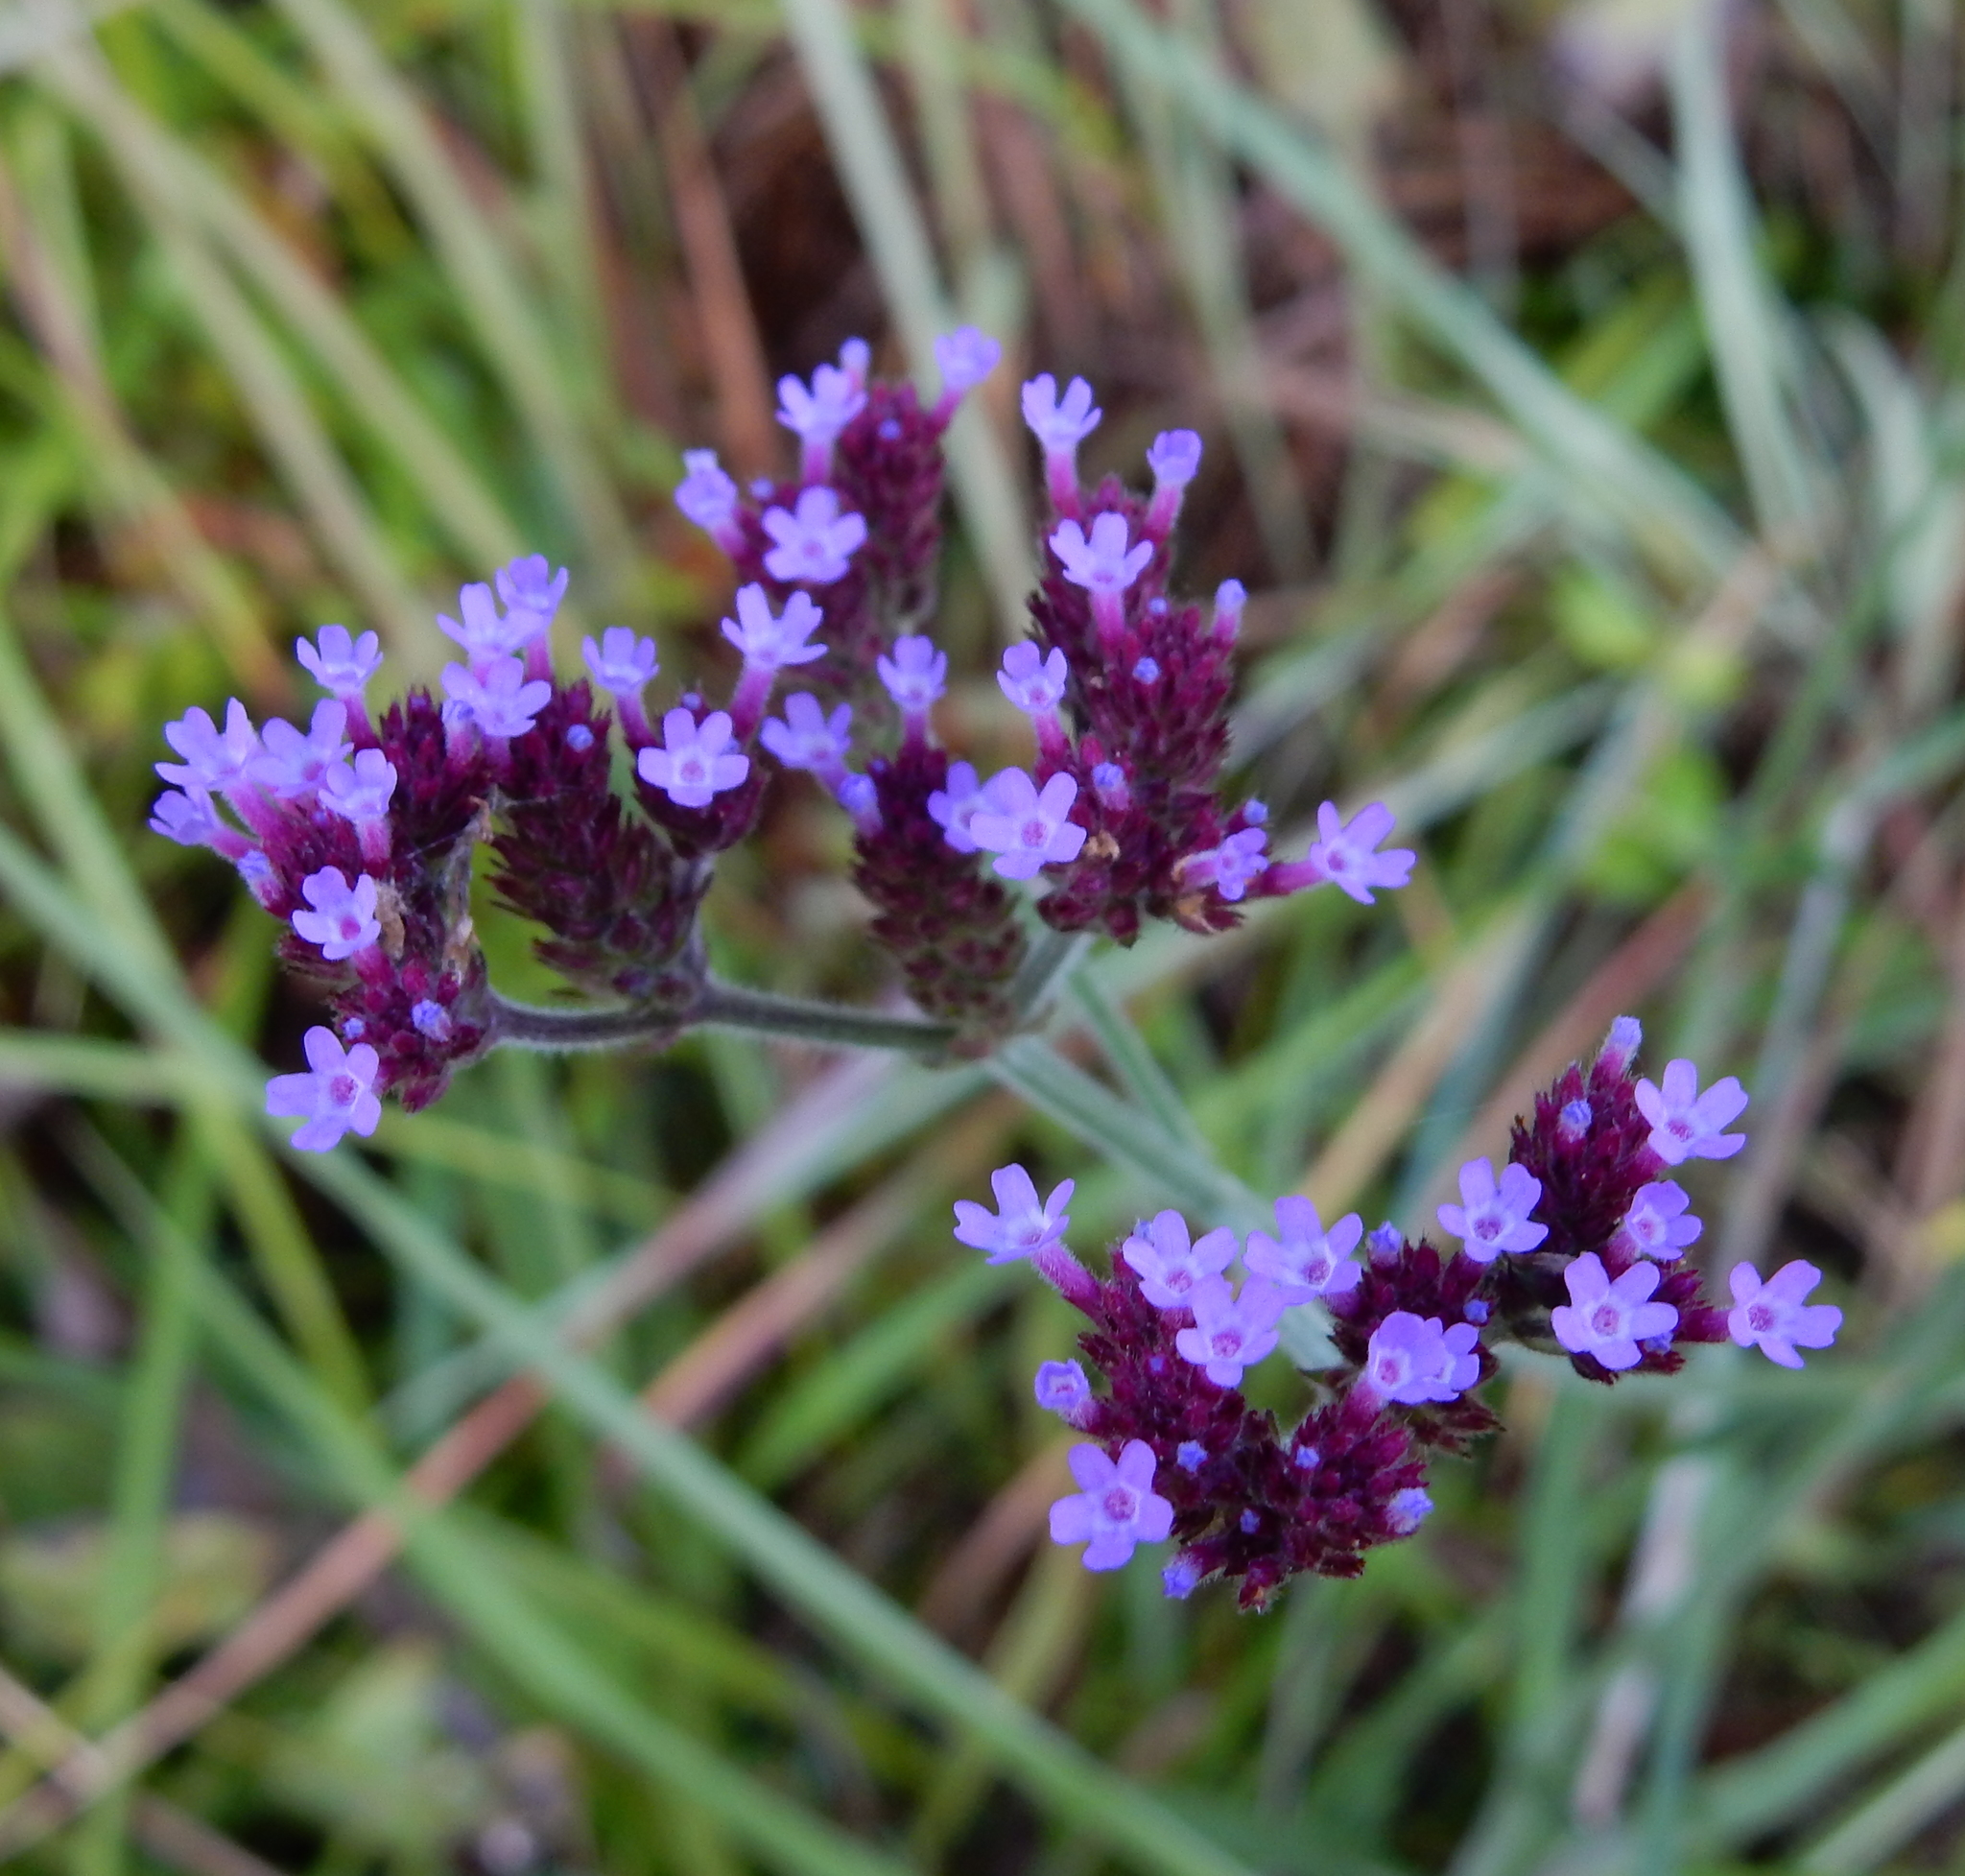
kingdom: Plantae
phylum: Tracheophyta
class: Magnoliopsida
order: Lamiales
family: Verbenaceae
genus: Verbena
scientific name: Verbena bonariensis
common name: Purpletop vervain
